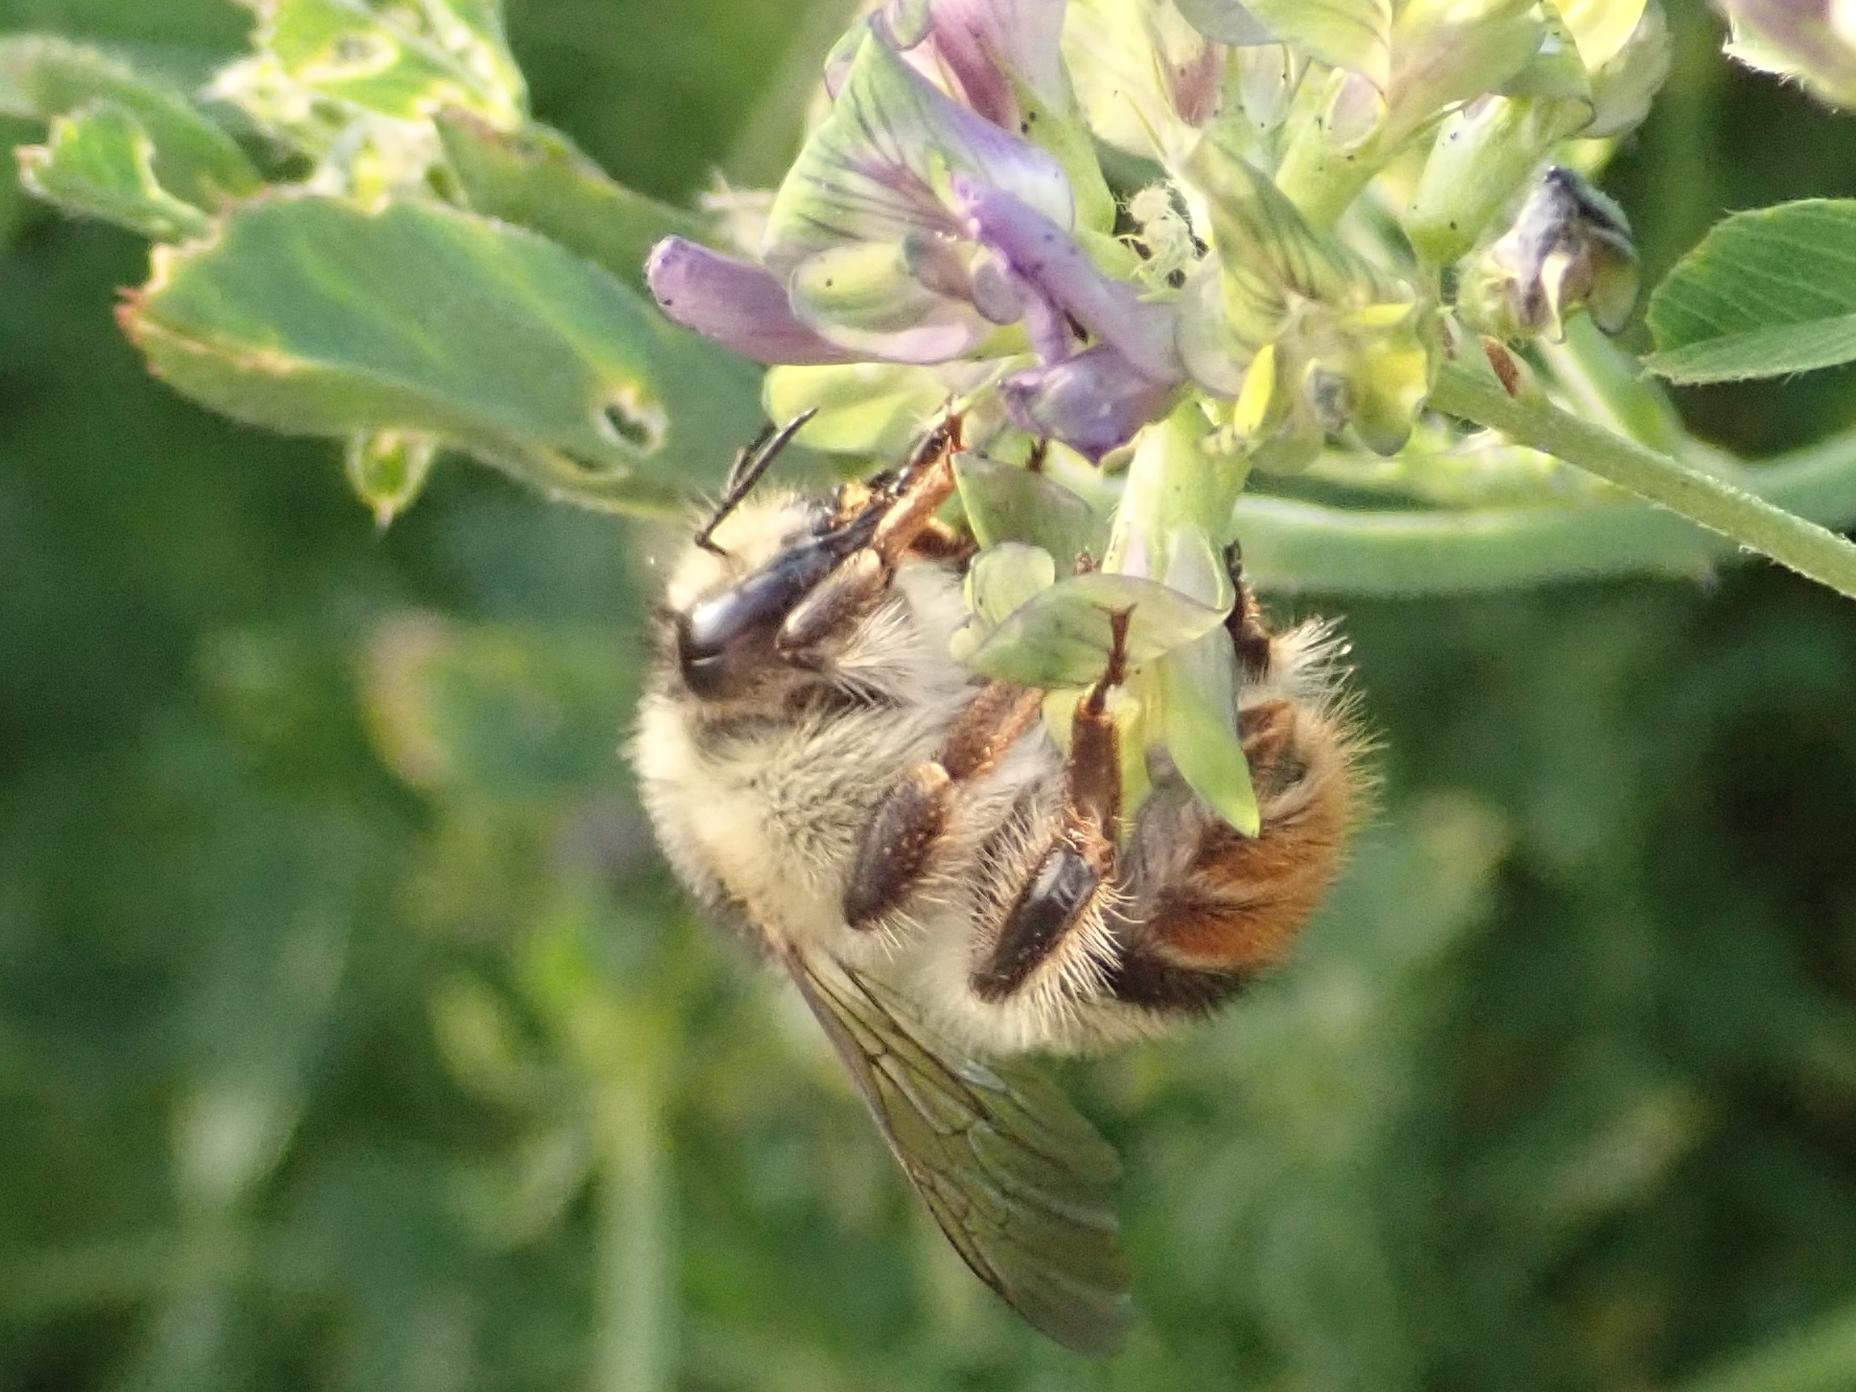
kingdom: Animalia
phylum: Arthropoda
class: Insecta
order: Hymenoptera
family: Apidae
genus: Bombus
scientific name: Bombus sylvarum
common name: Shrill carder bee
